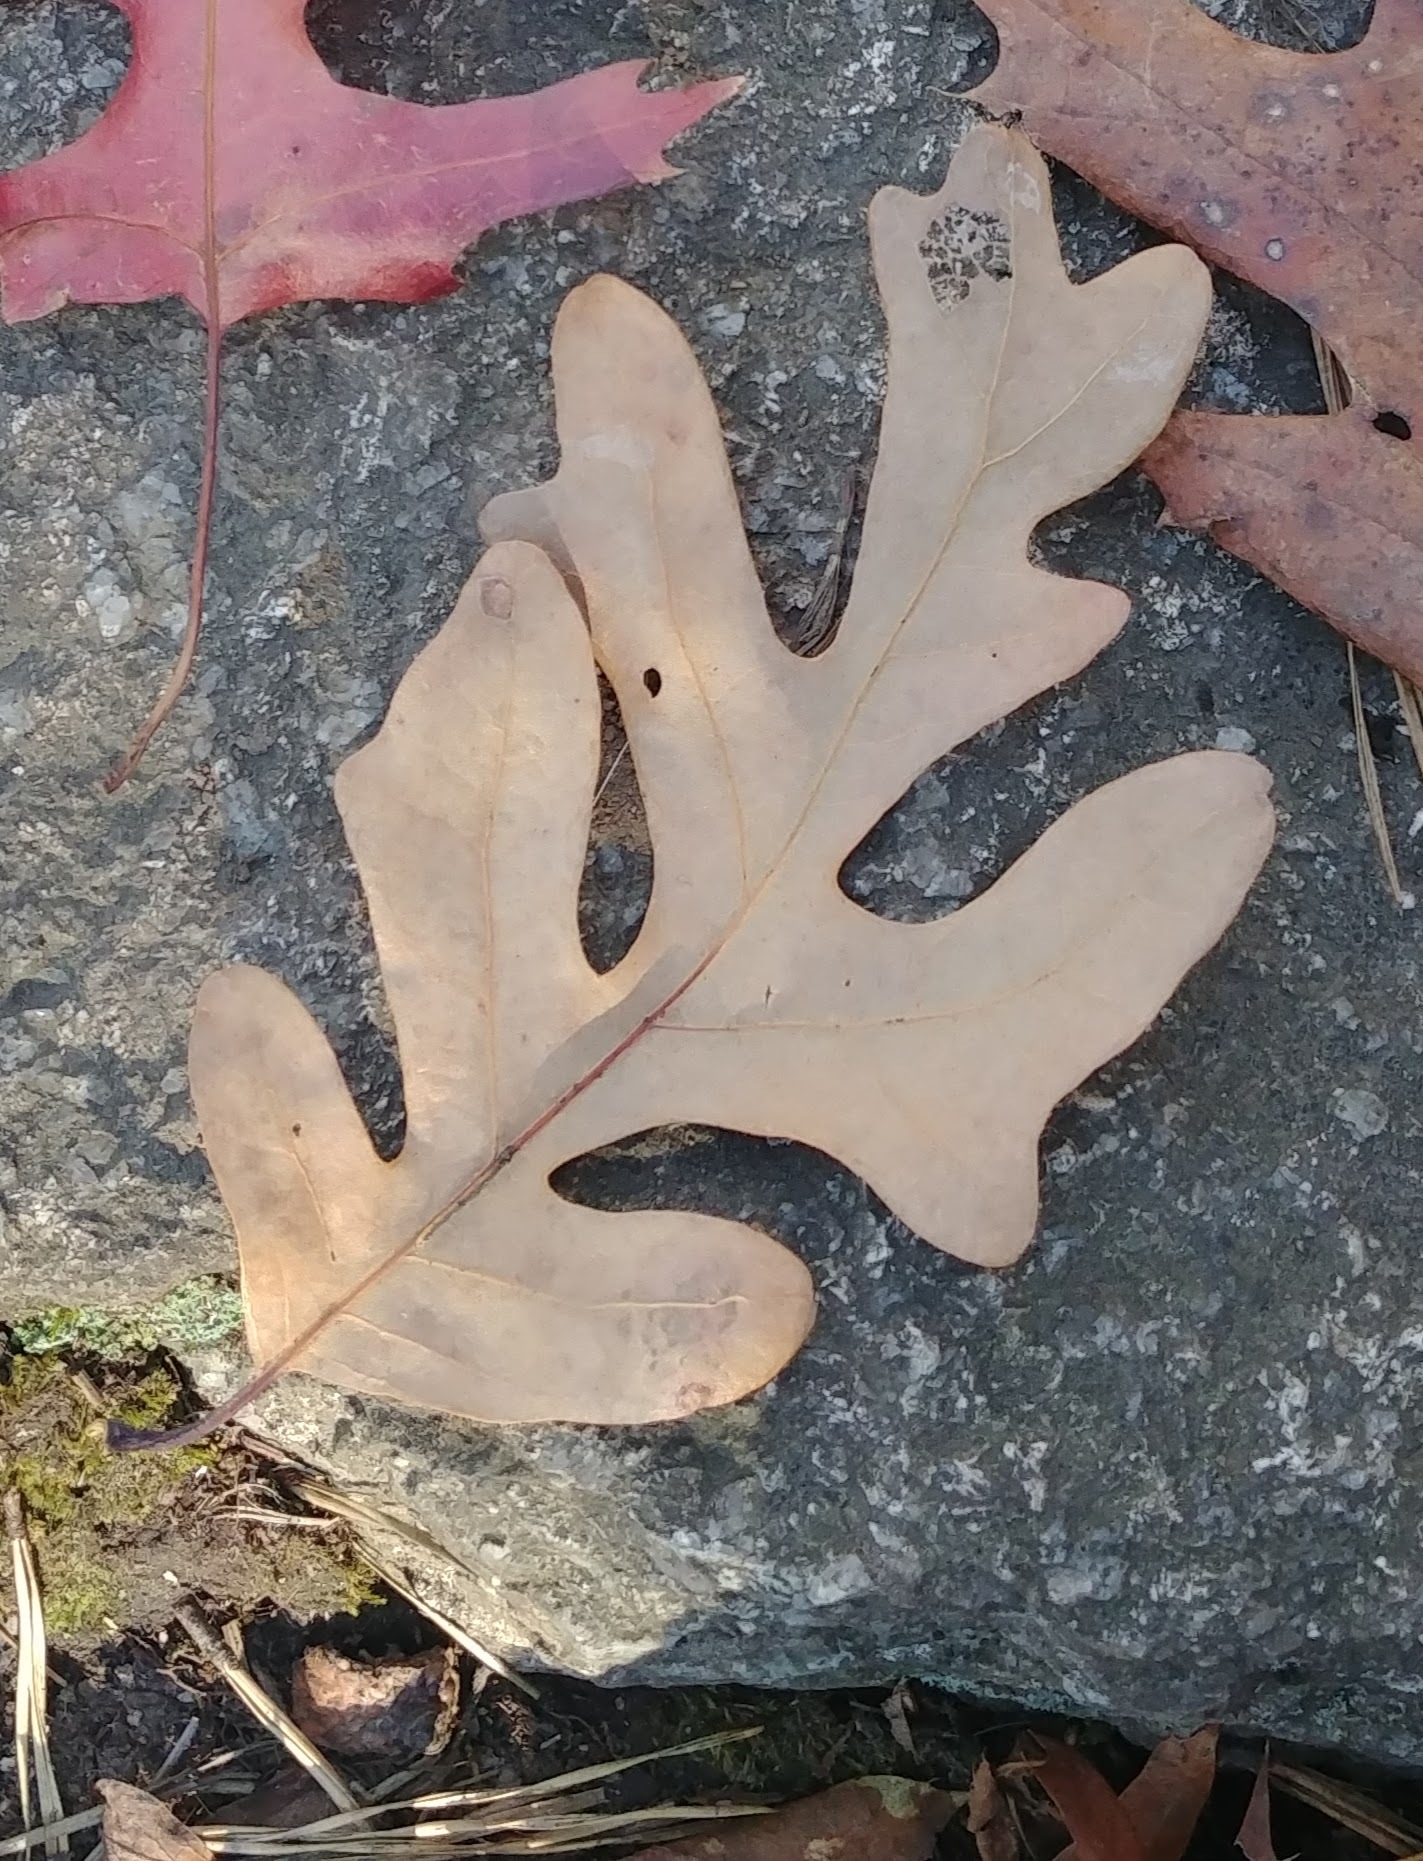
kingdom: Plantae
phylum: Tracheophyta
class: Magnoliopsida
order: Fagales
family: Fagaceae
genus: Quercus
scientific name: Quercus alba
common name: White oak
